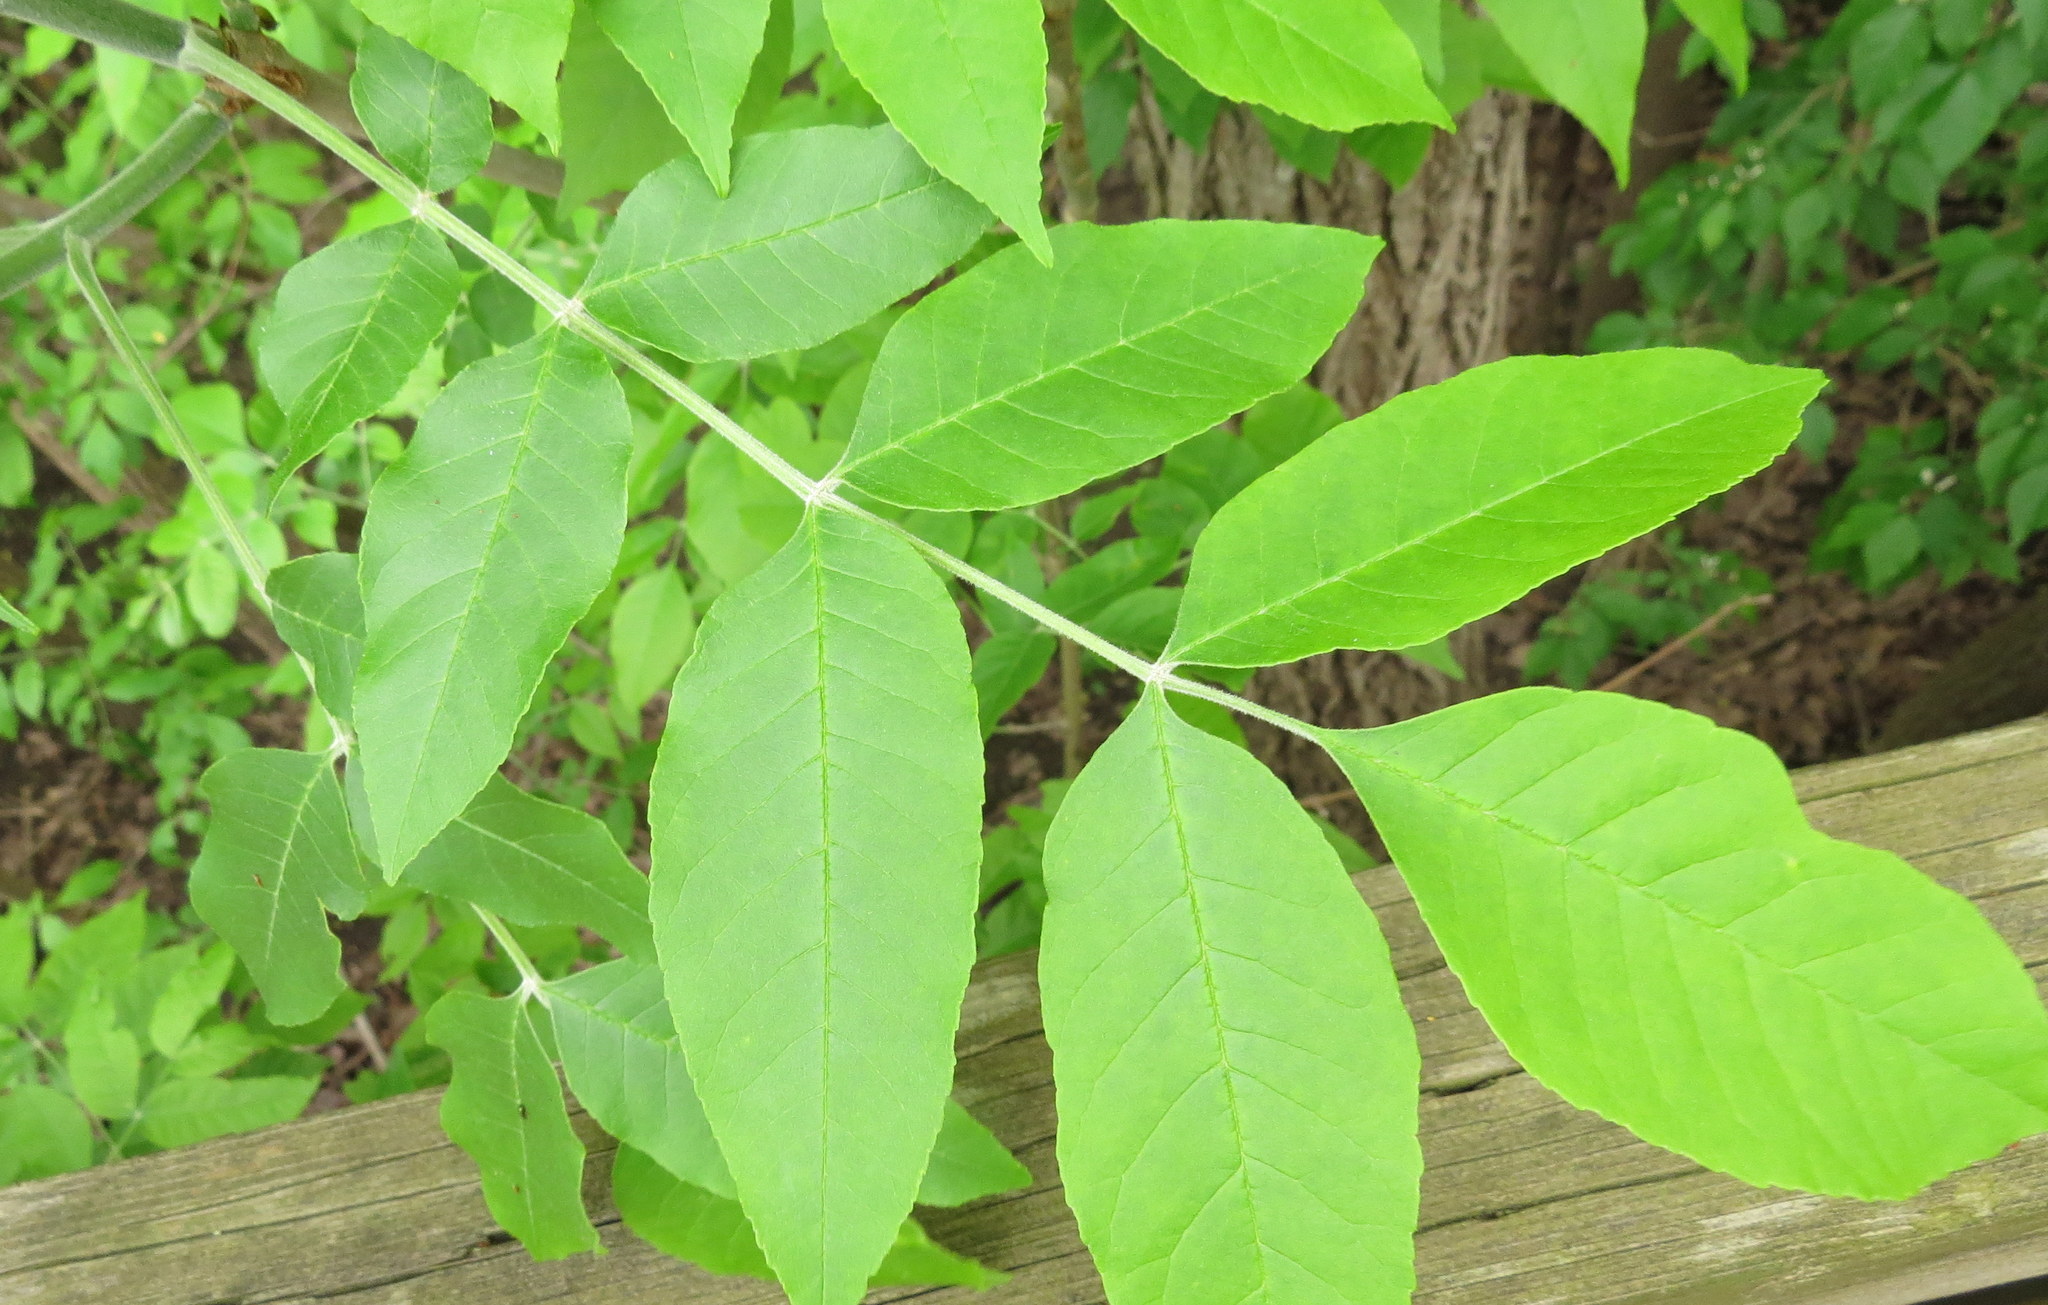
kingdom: Plantae
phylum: Tracheophyta
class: Magnoliopsida
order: Lamiales
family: Oleaceae
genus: Fraxinus
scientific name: Fraxinus pennsylvanica
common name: Green ash
